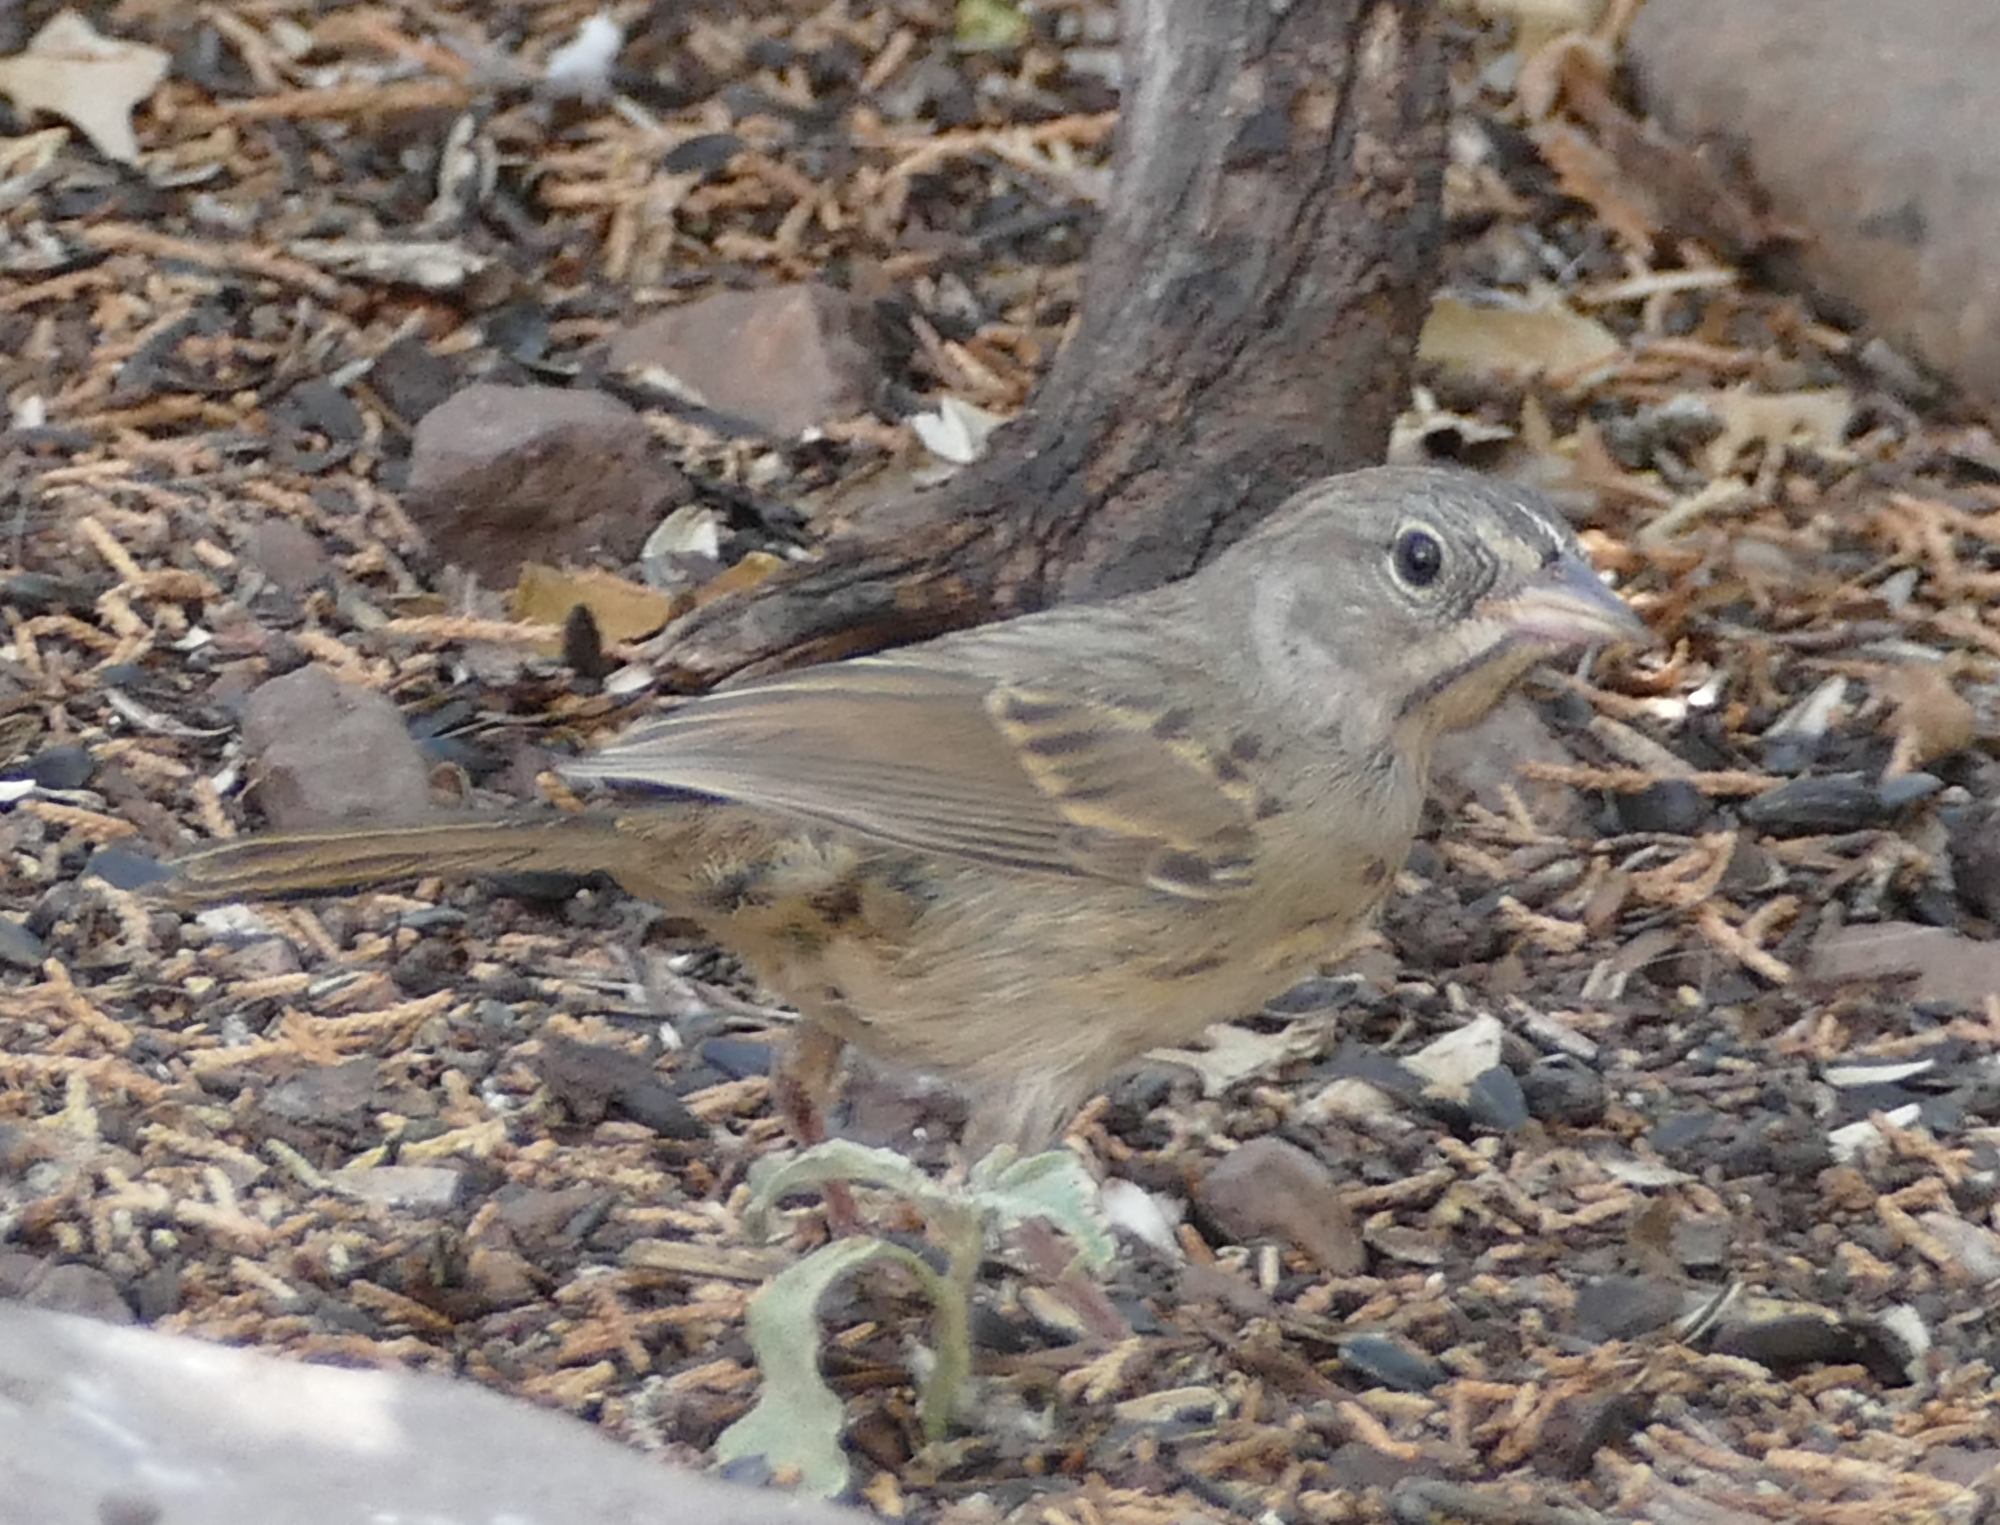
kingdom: Animalia
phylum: Chordata
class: Aves
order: Passeriformes
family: Passerellidae
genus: Aimophila
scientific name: Aimophila ruficeps
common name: Rufous-crowned sparrow
